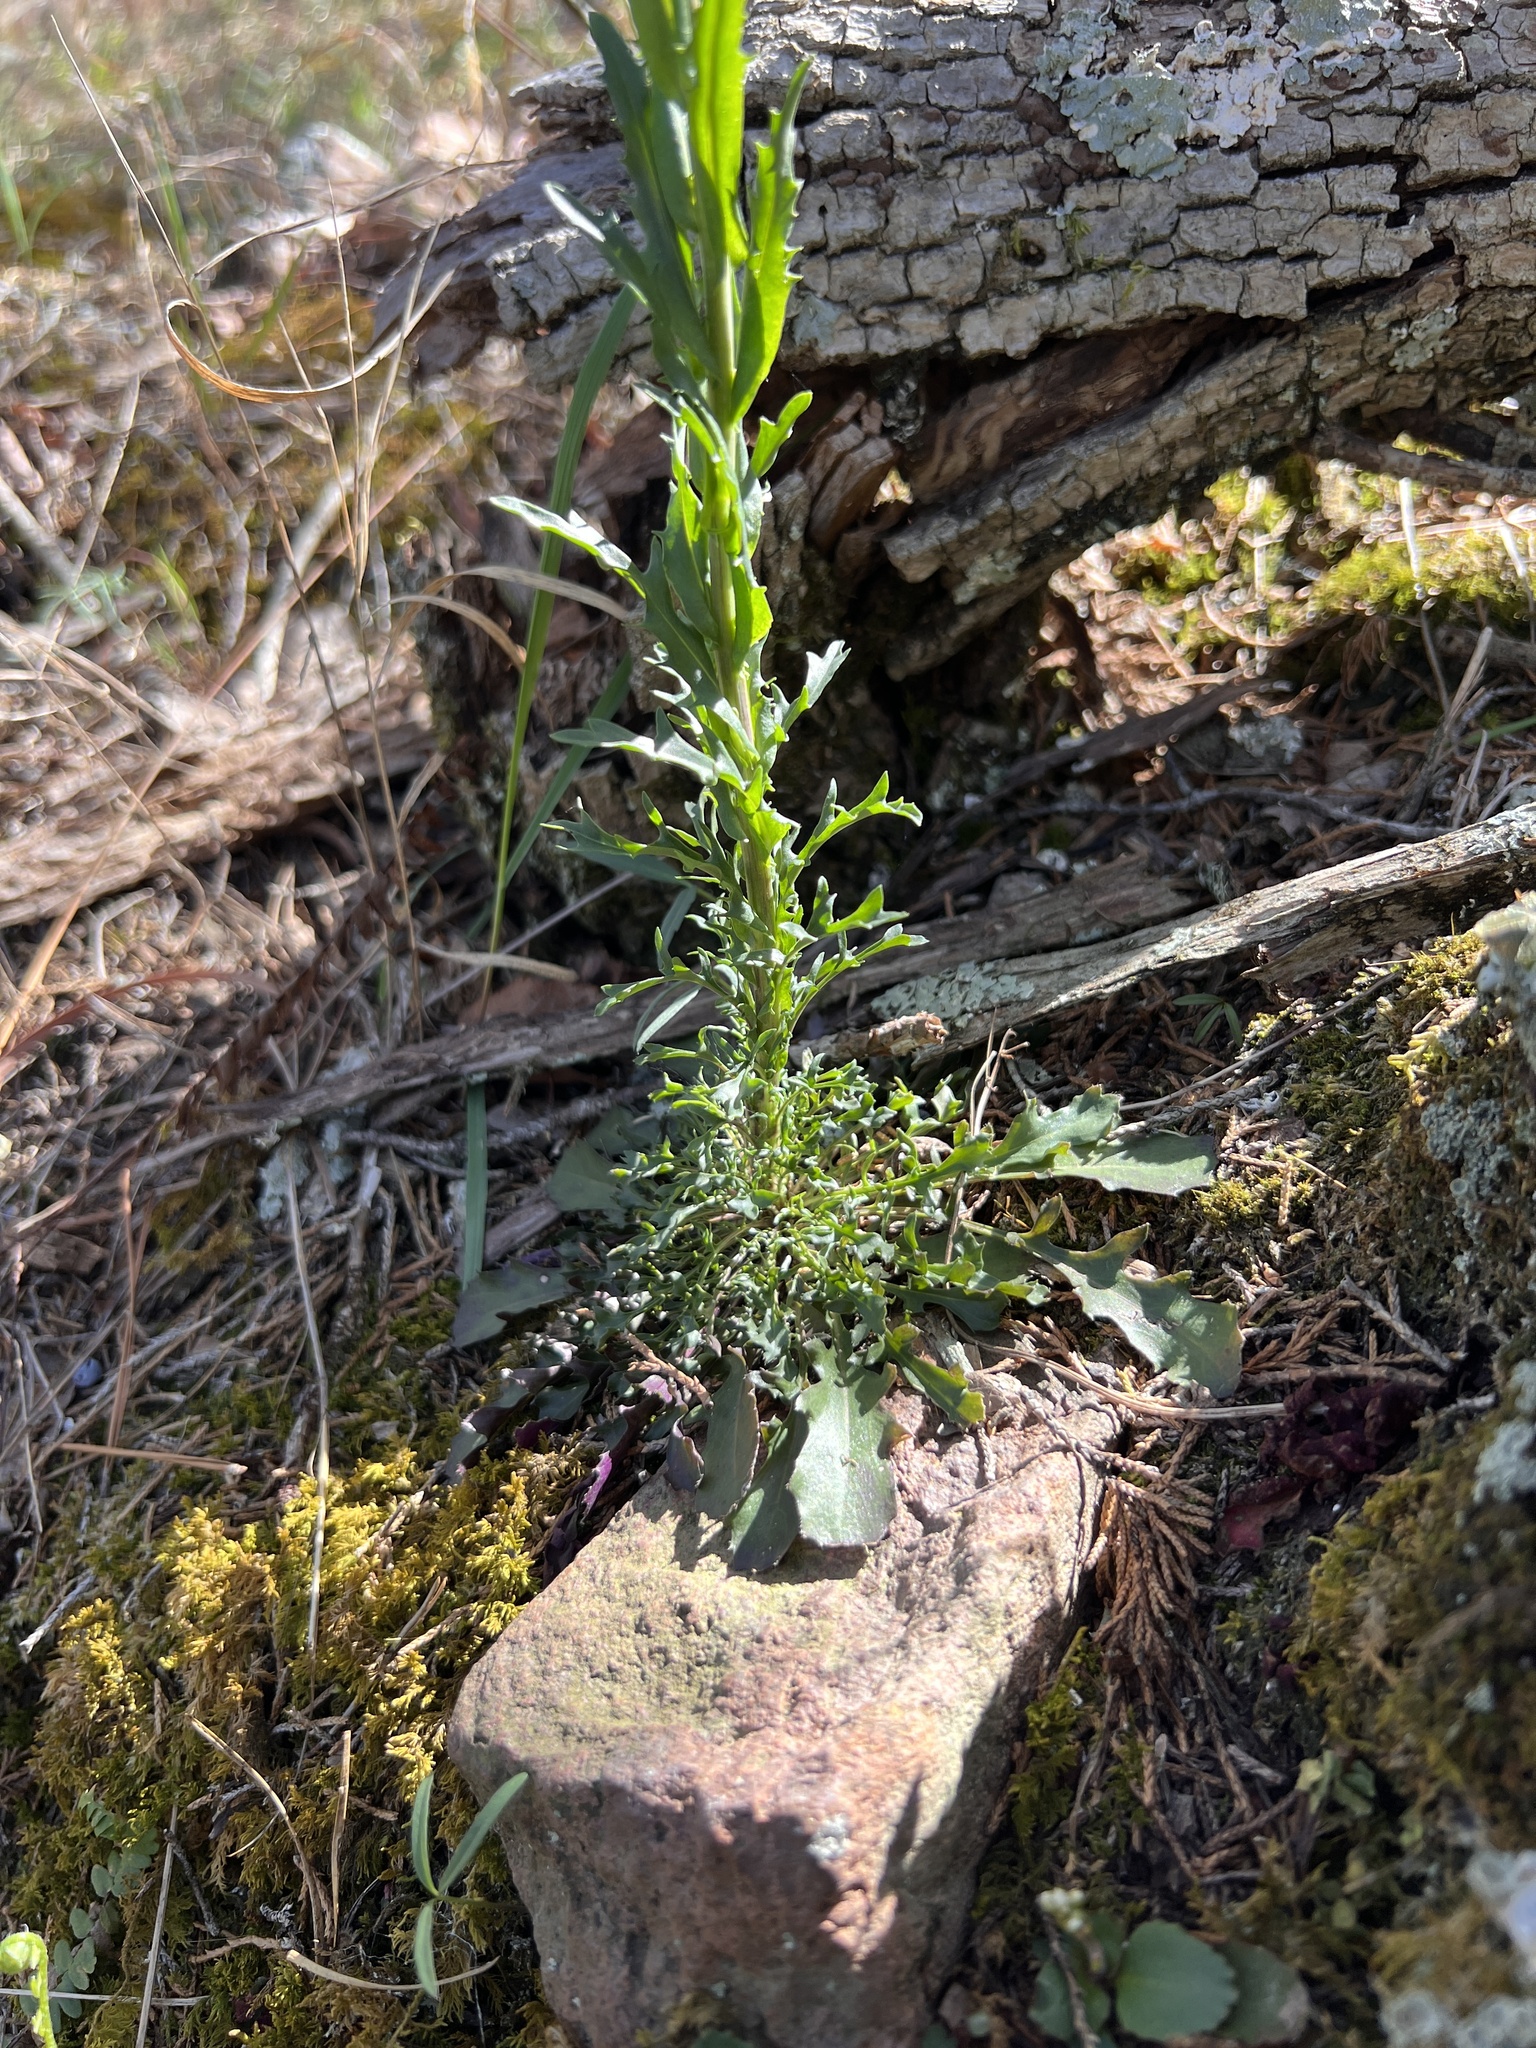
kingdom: Plantae
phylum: Tracheophyta
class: Magnoliopsida
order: Brassicales
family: Brassicaceae
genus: Borodinia
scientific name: Borodinia missouriensis
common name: Green rockcress
